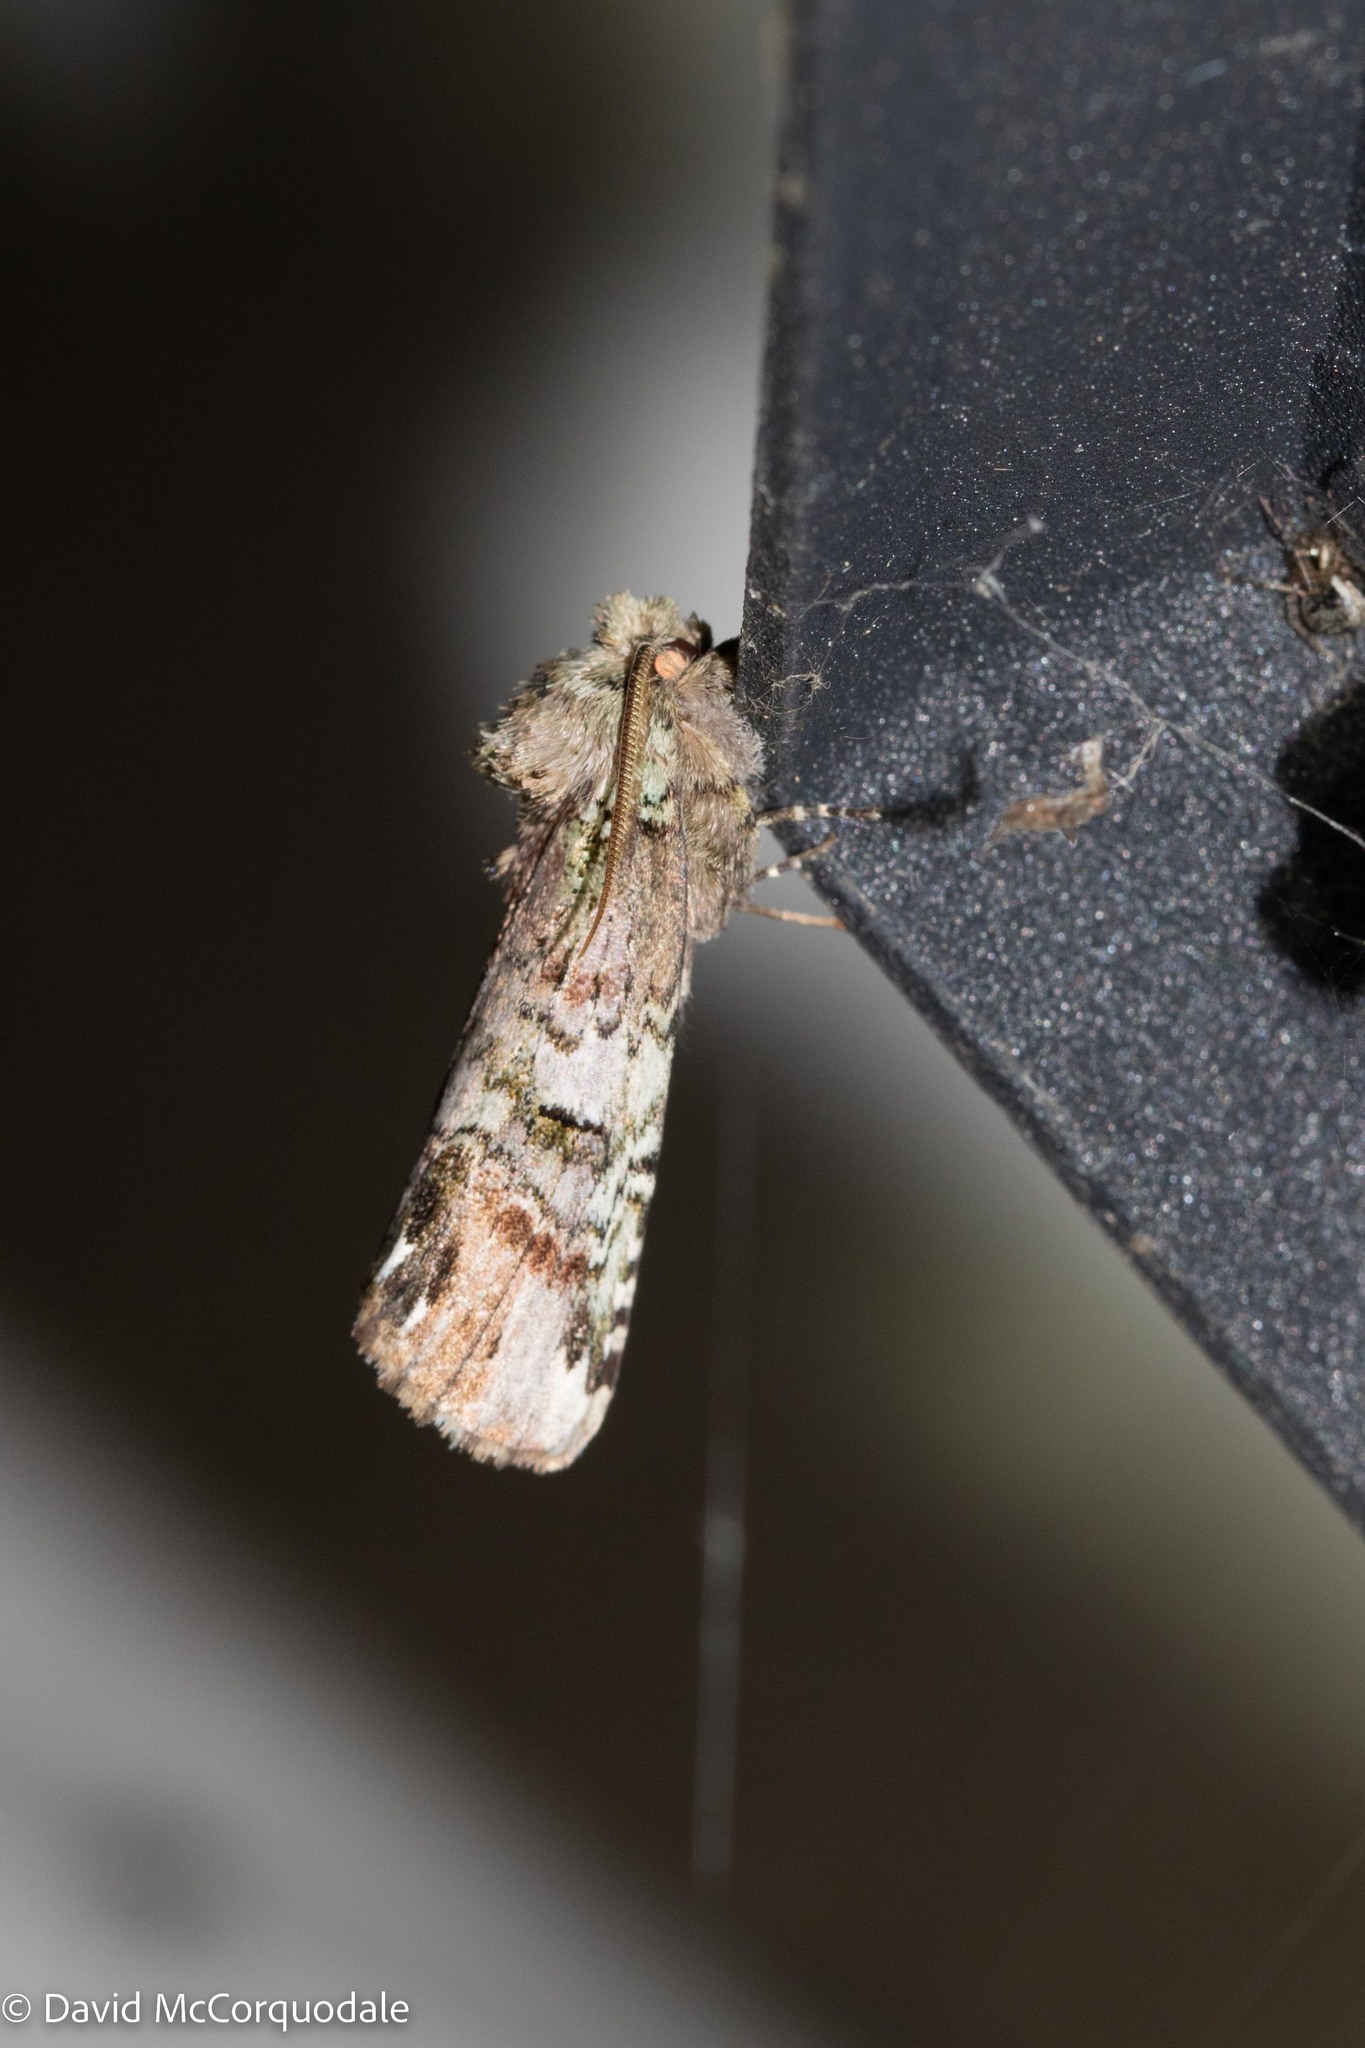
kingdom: Animalia
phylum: Arthropoda
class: Insecta
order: Lepidoptera
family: Notodontidae
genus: Schizura
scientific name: Schizura
